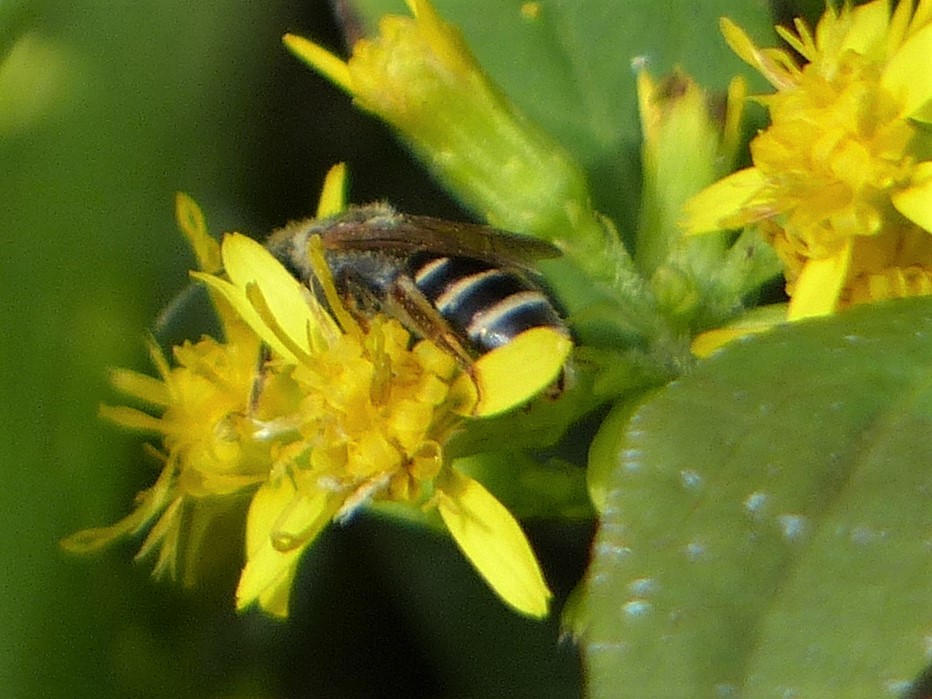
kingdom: Animalia
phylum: Arthropoda
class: Insecta
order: Hymenoptera
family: Halictidae
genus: Halictus
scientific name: Halictus ligatus
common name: Ligated furrow bee
